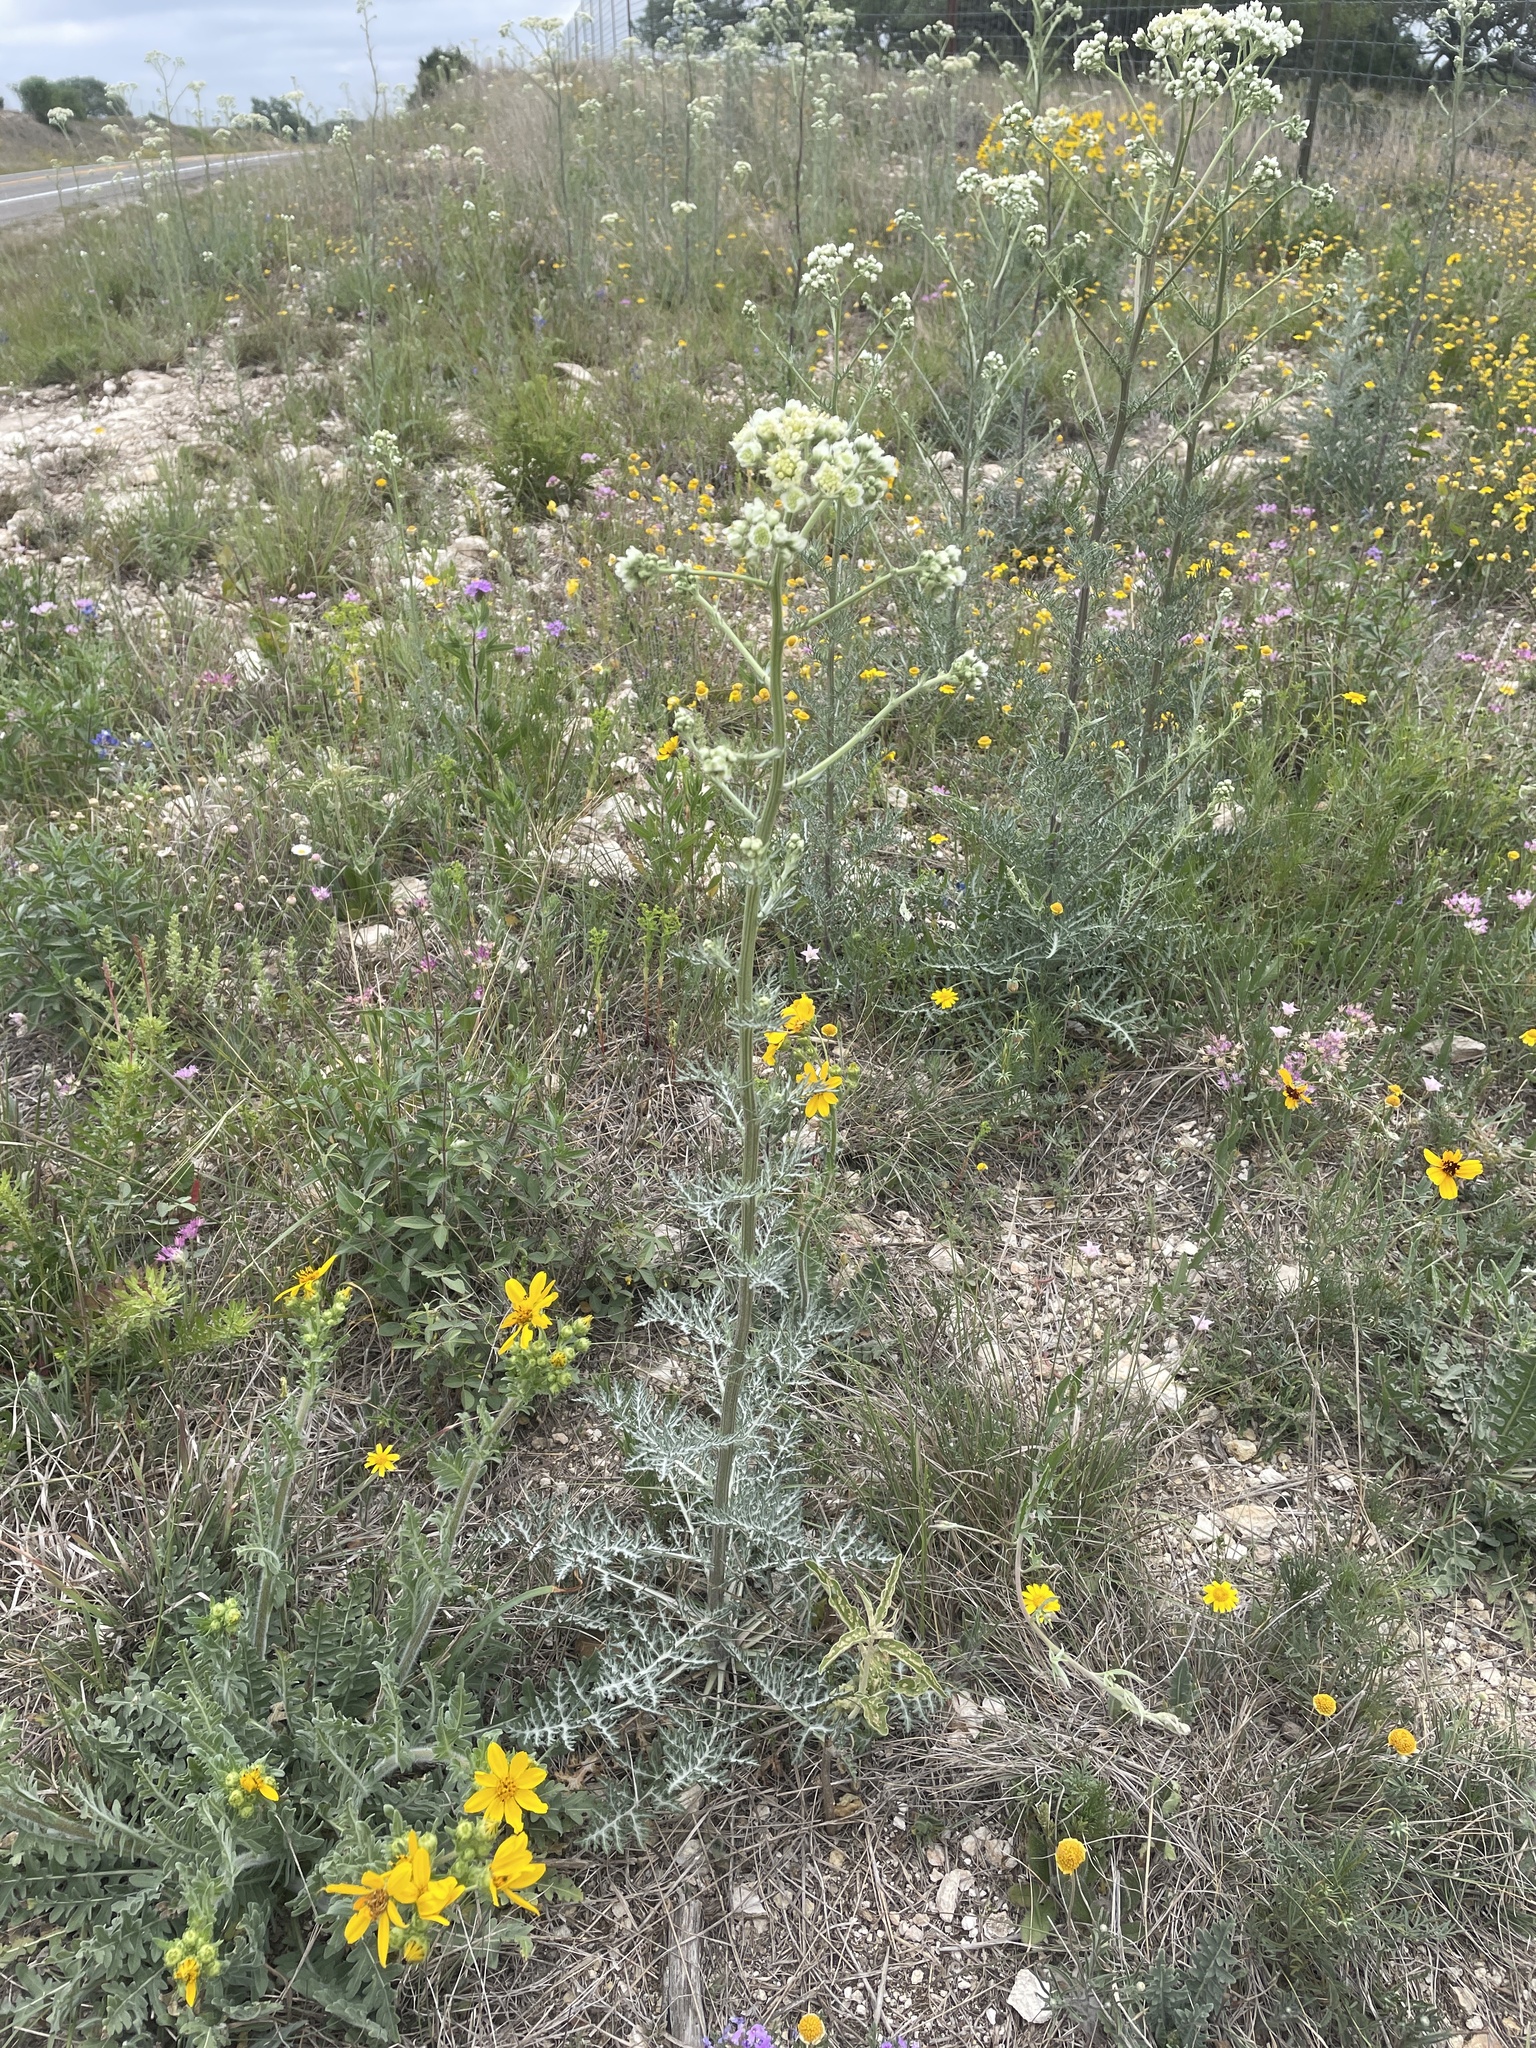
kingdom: Plantae
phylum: Tracheophyta
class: Magnoliopsida
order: Asterales
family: Asteraceae
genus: Hymenopappus
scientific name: Hymenopappus scabiosaeus
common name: Carolina woollywhite
